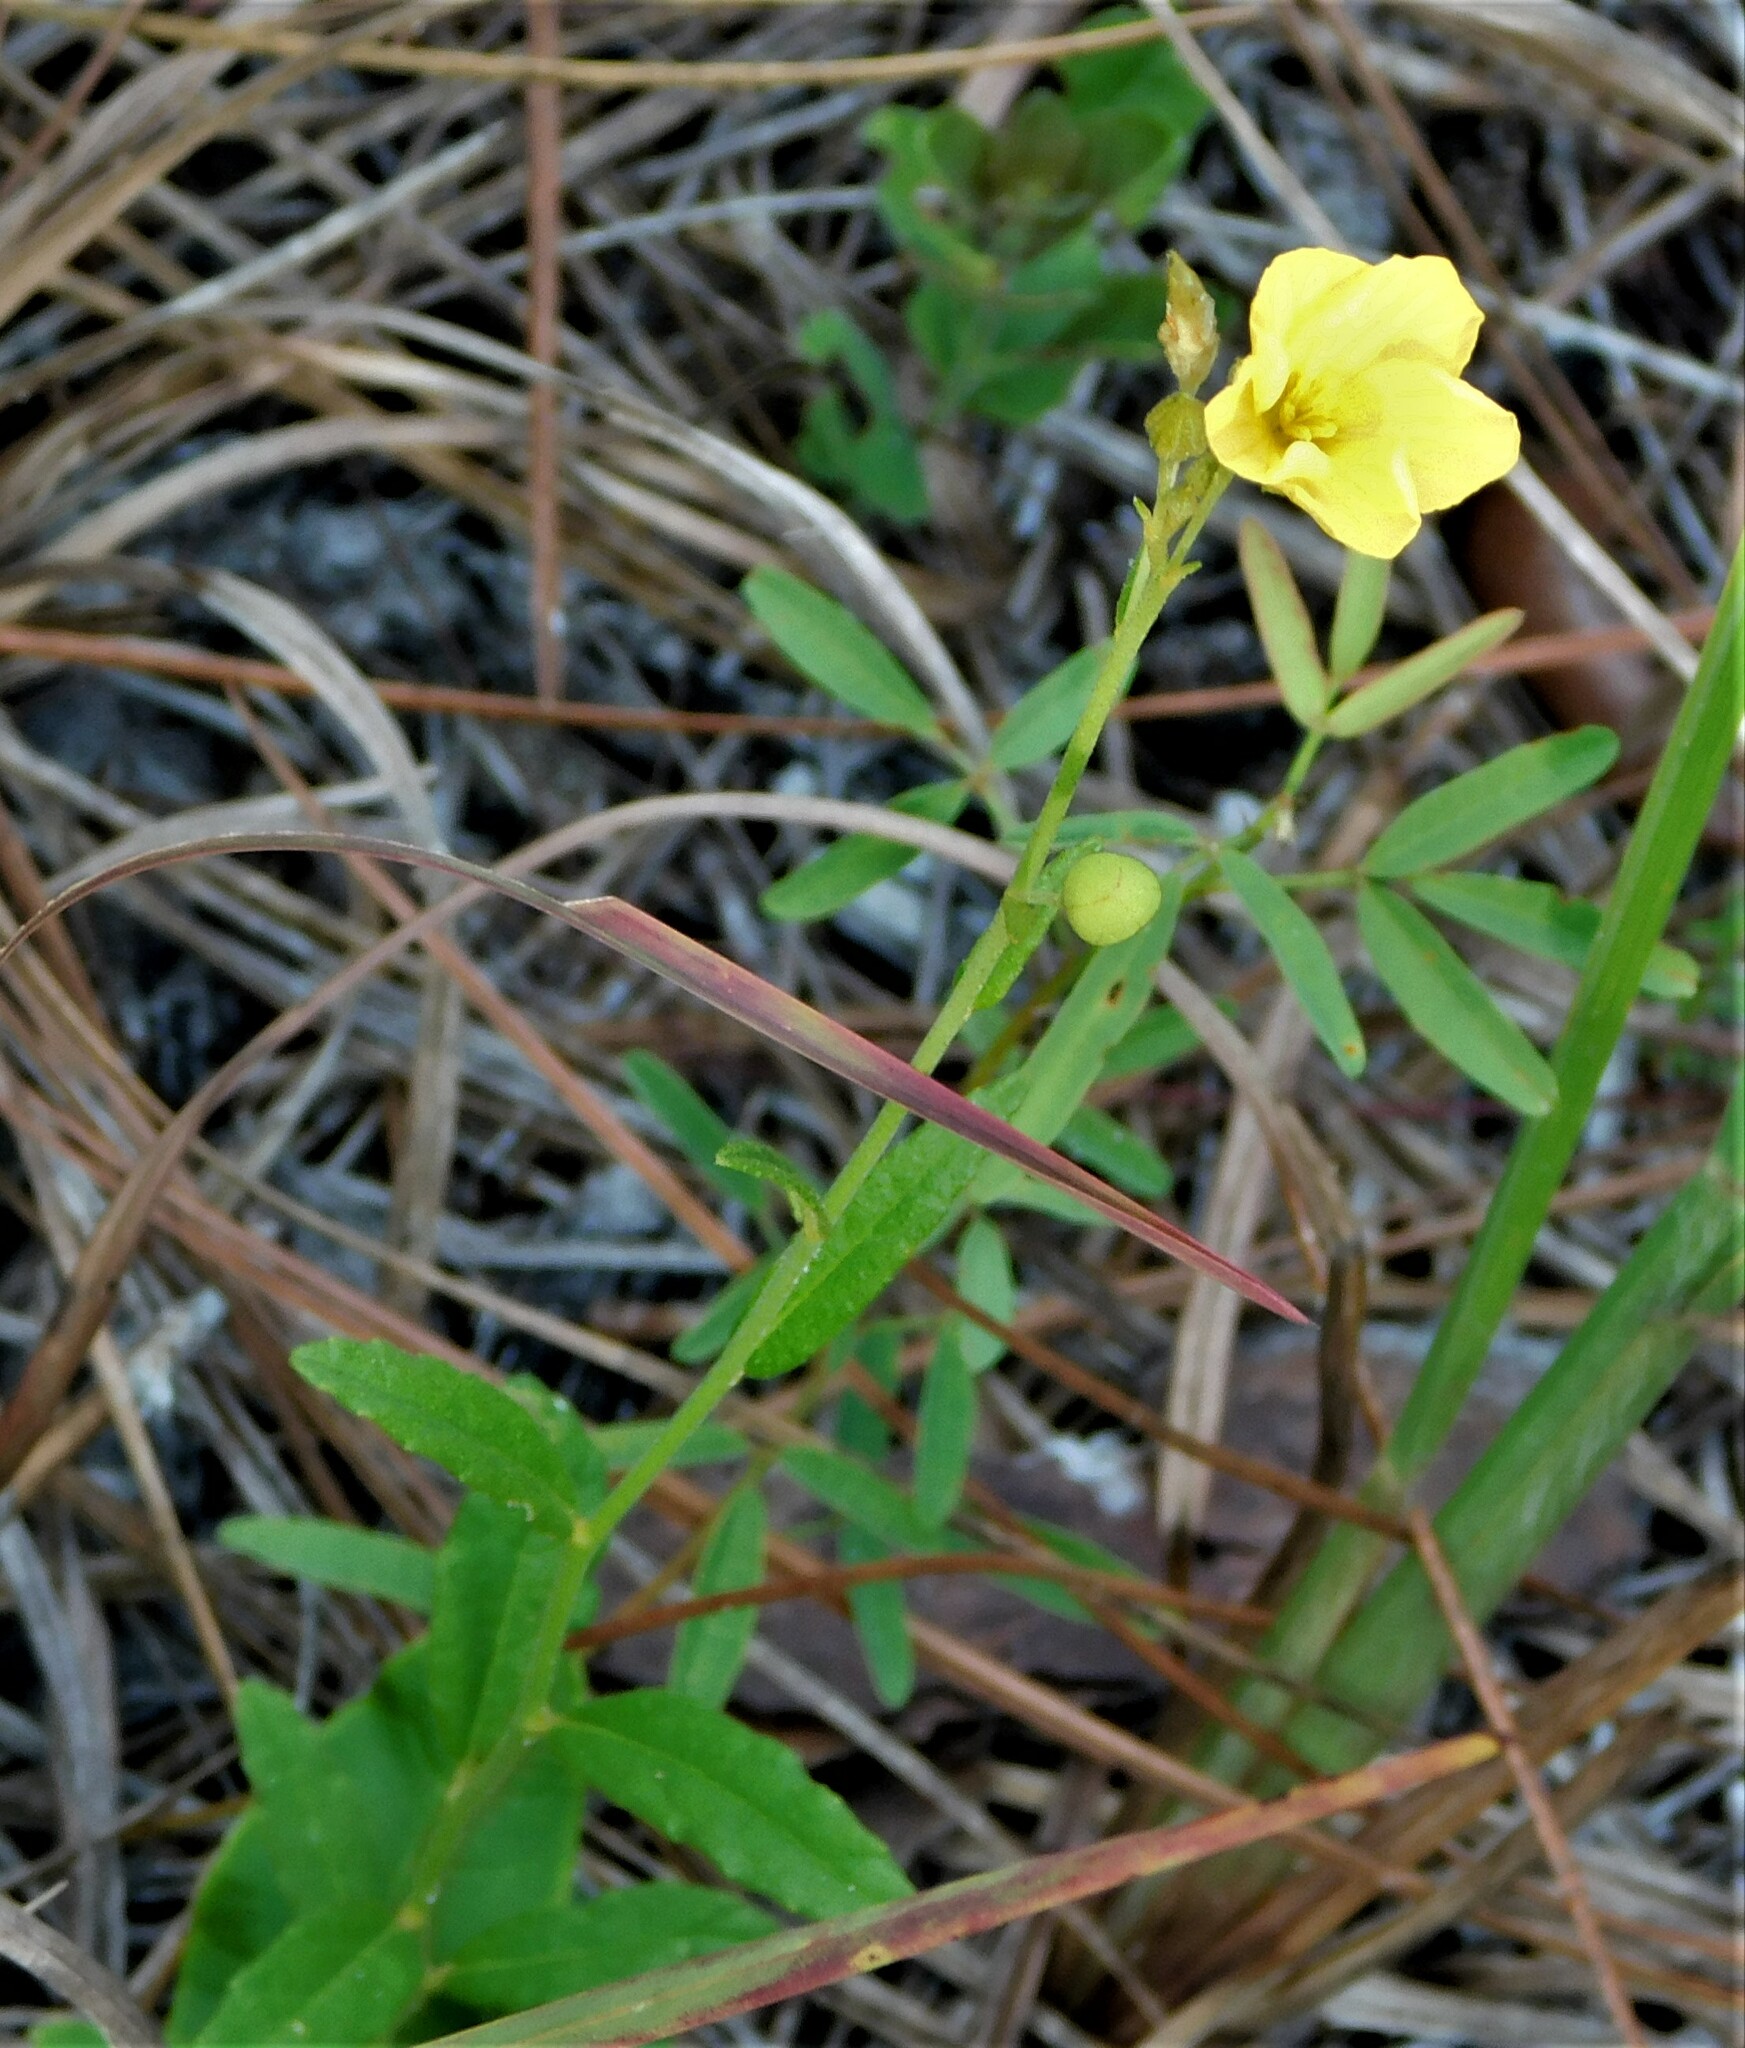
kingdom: Plantae
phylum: Tracheophyta
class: Magnoliopsida
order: Malpighiales
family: Turneraceae
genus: Piriqueta
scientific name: Piriqueta cistoides
